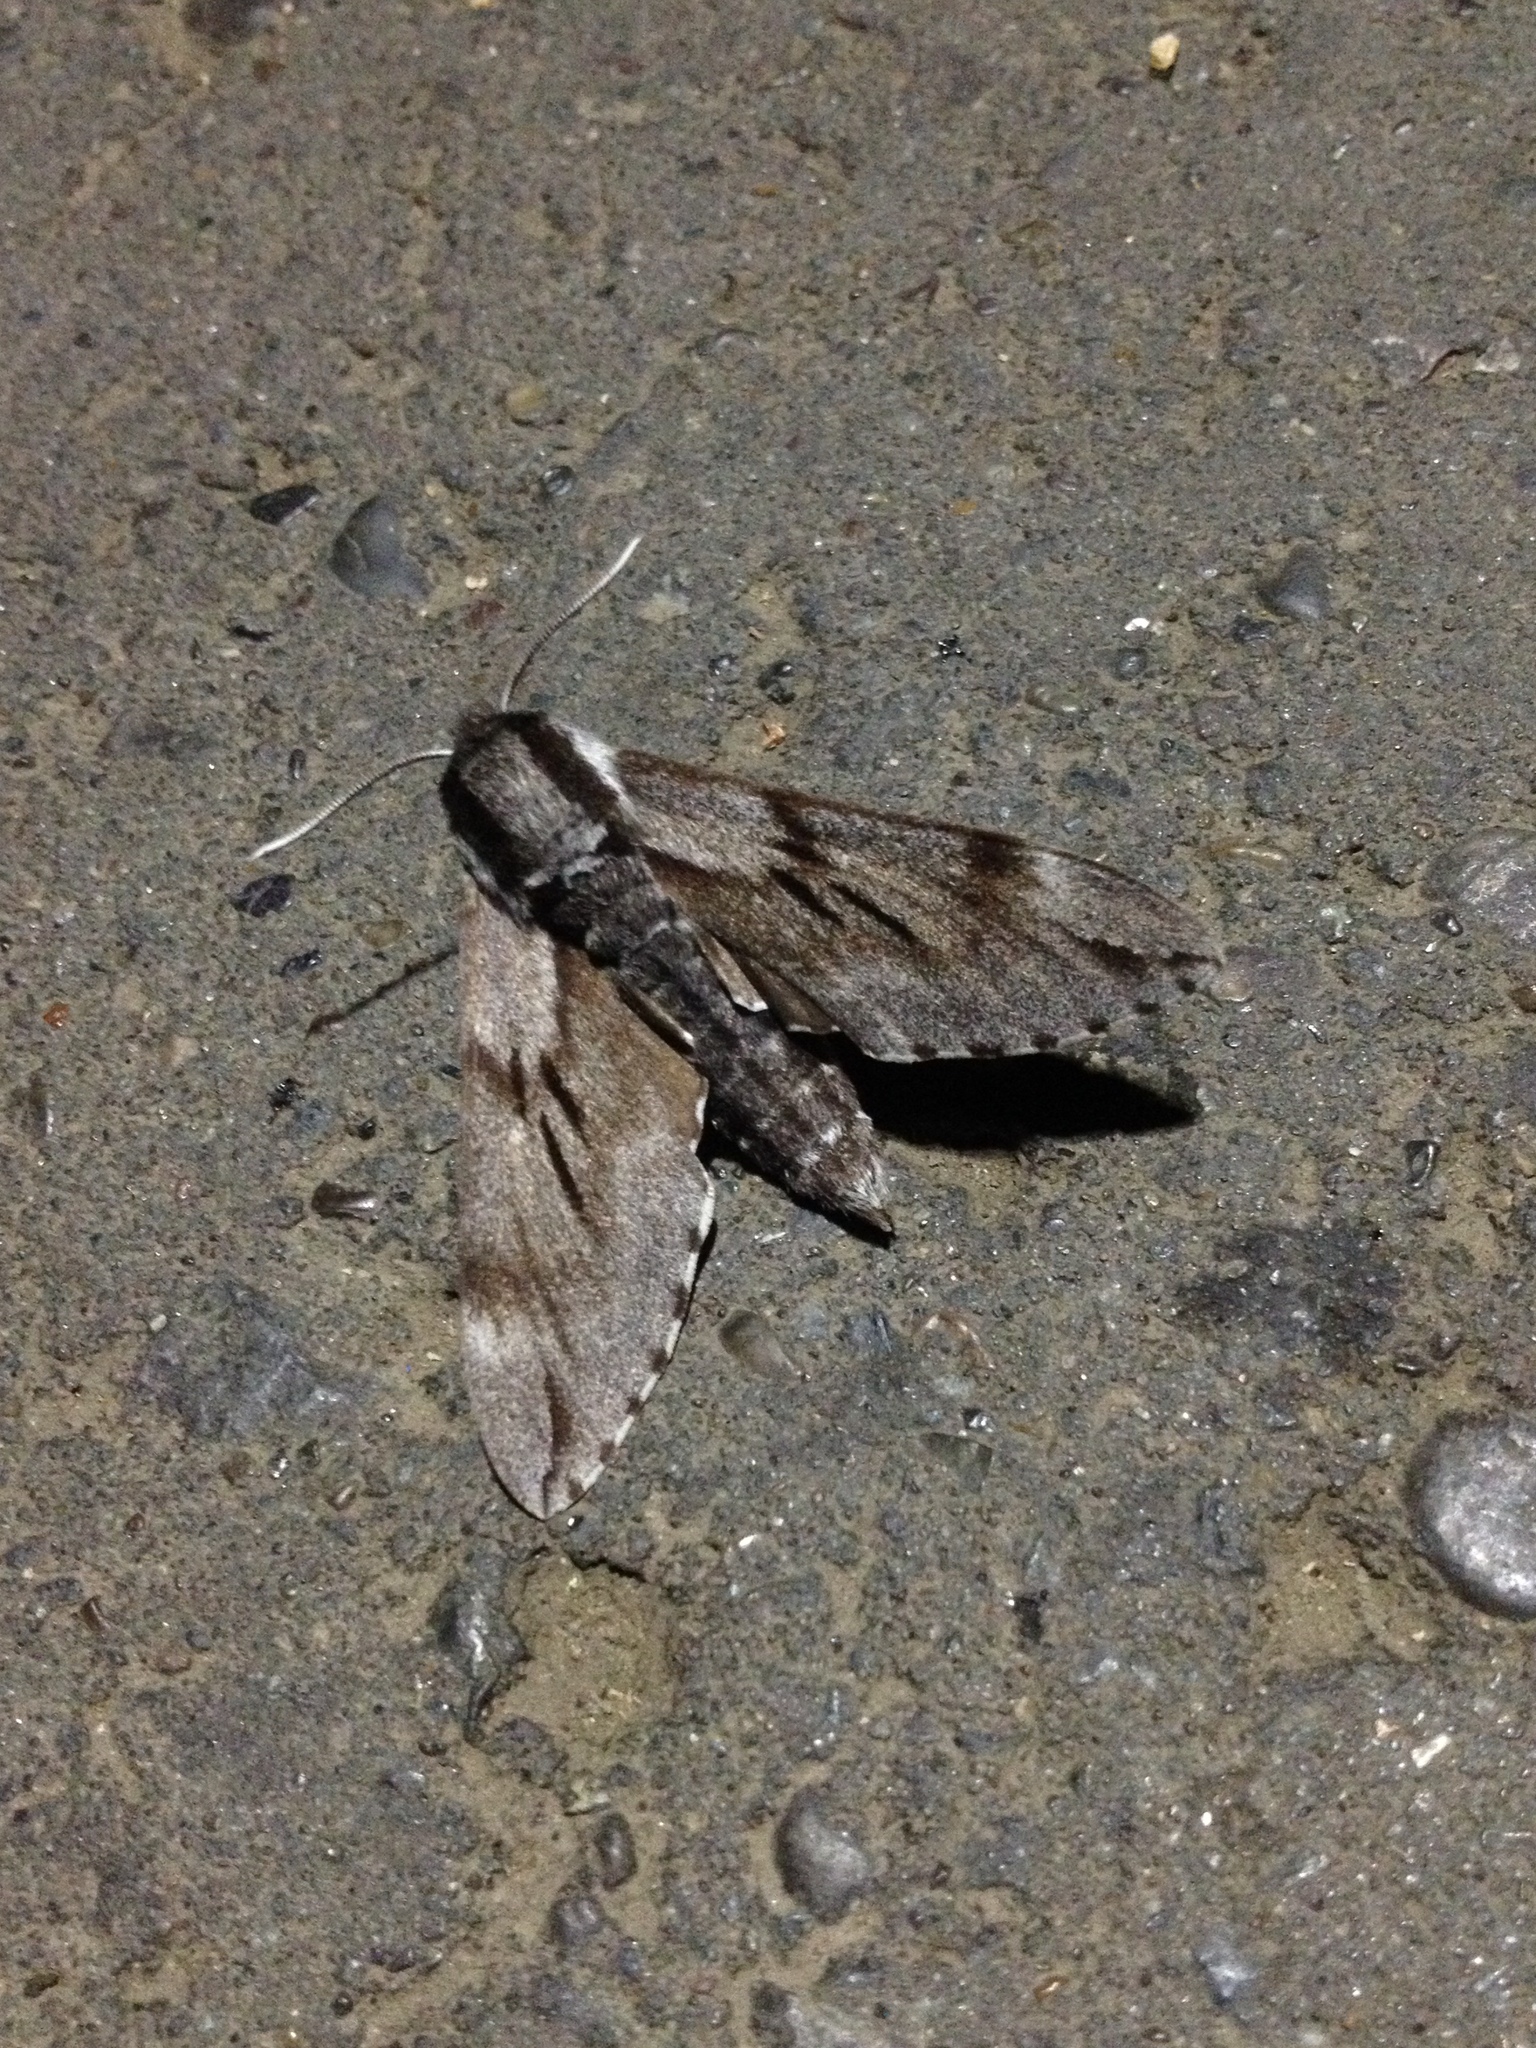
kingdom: Animalia
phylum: Arthropoda
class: Insecta
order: Lepidoptera
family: Sphingidae
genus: Sphinx
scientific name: Sphinx pinastri
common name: Pine hawk-moth
